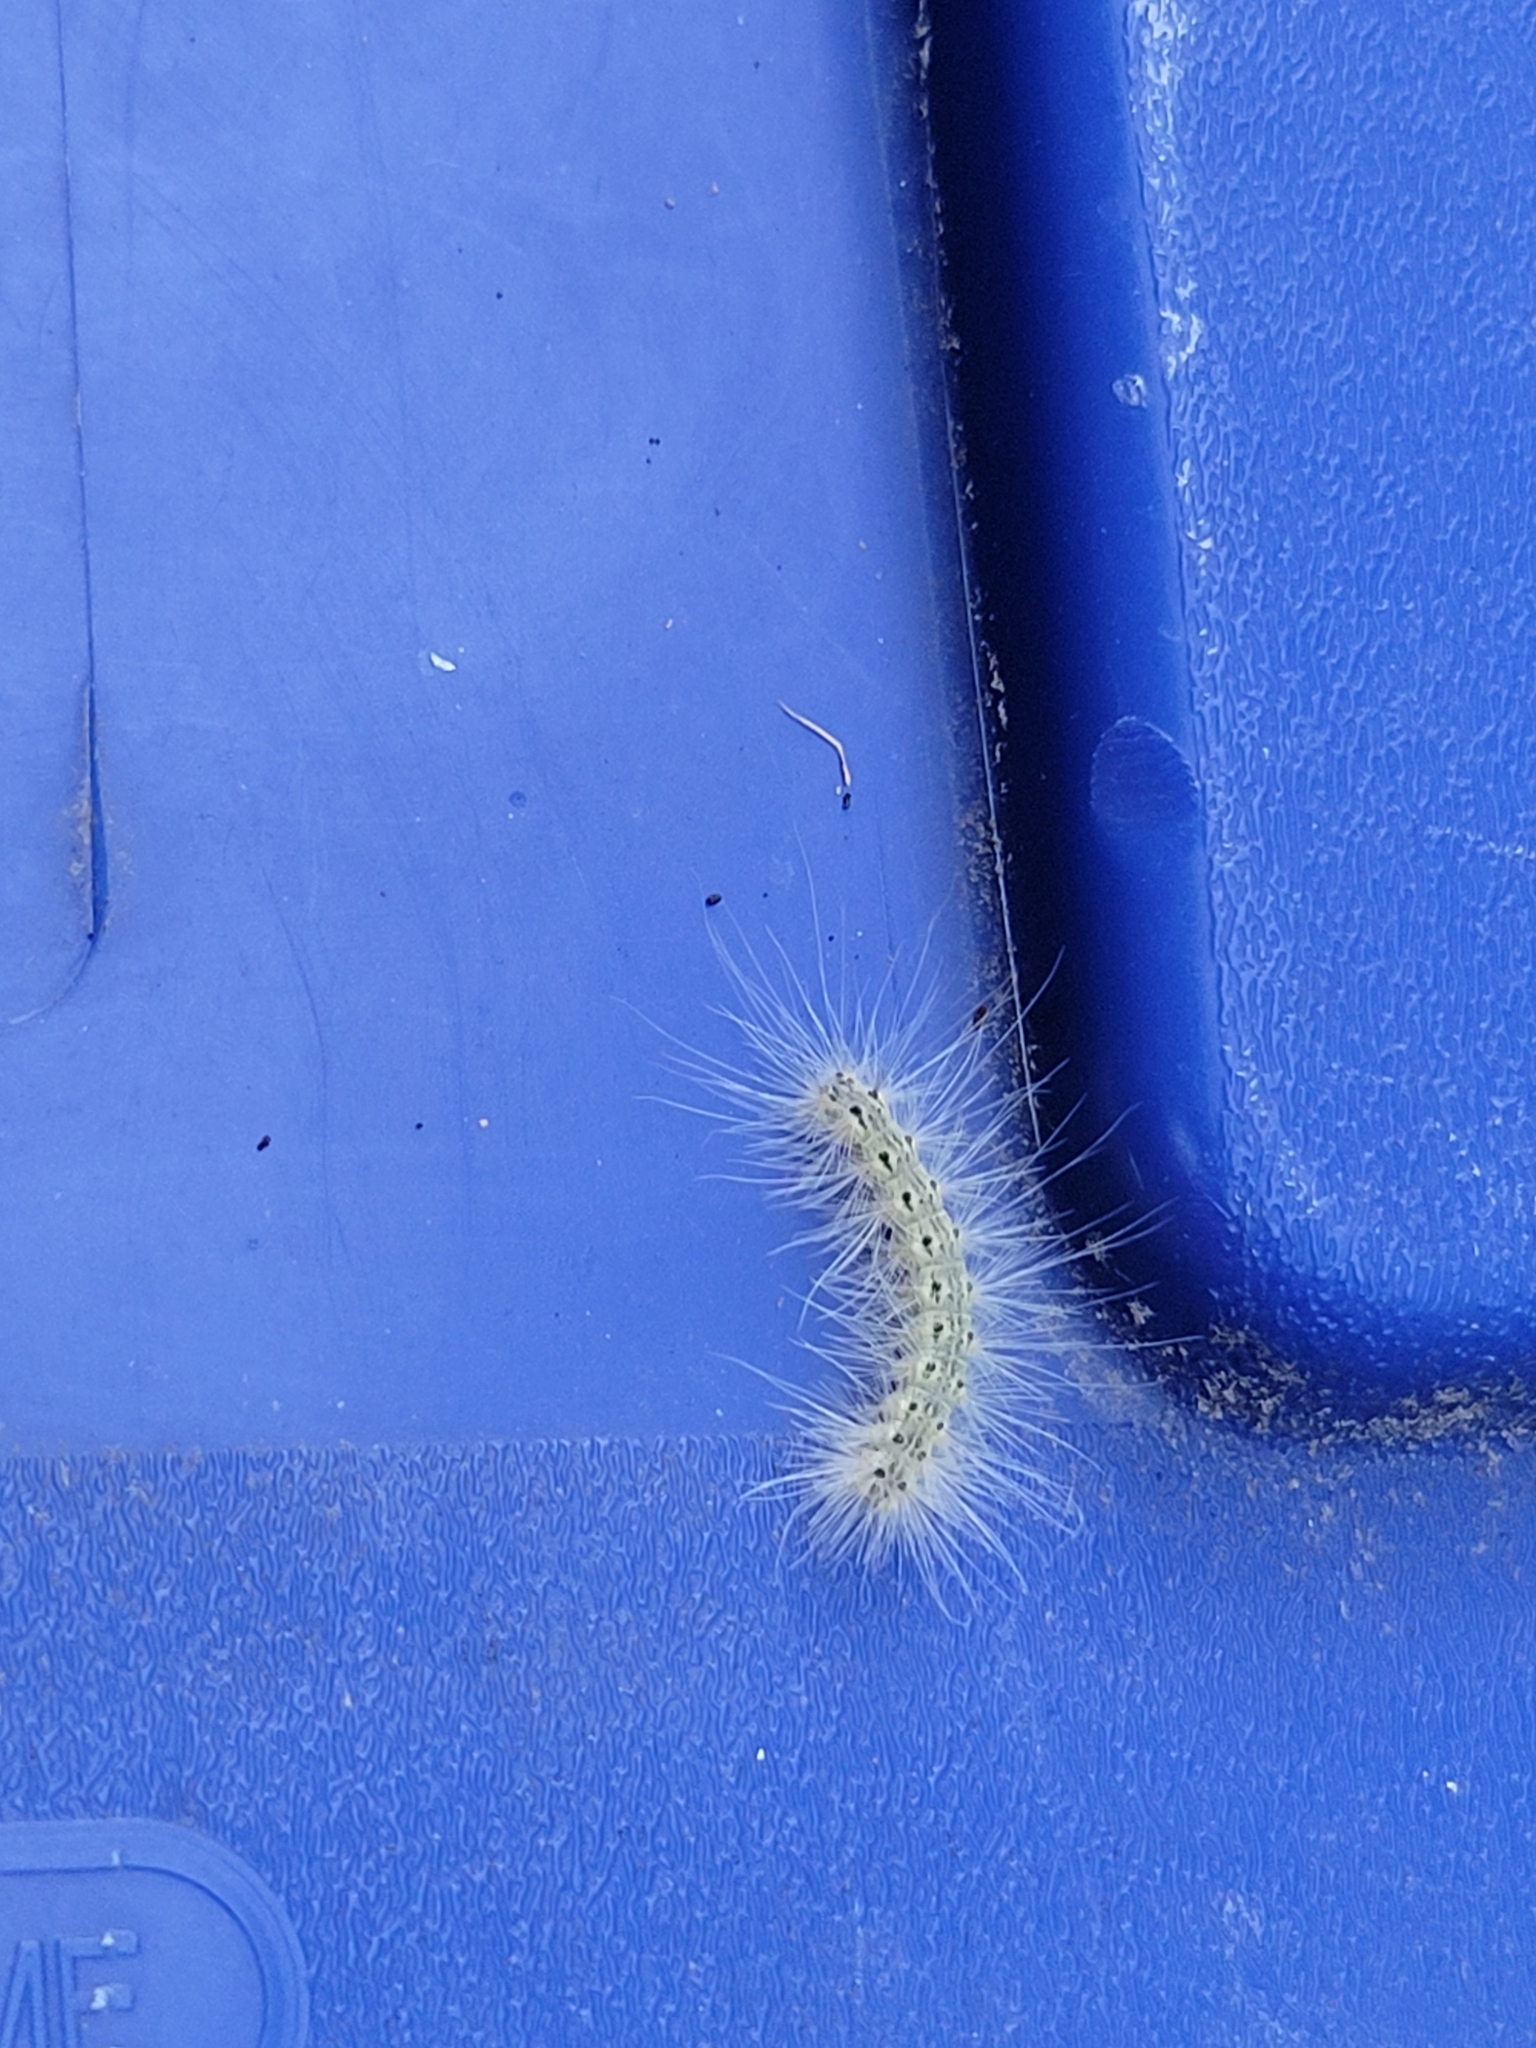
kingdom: Animalia
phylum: Arthropoda
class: Insecta
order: Lepidoptera
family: Erebidae
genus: Hyphantria
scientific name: Hyphantria cunea
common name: American white moth
